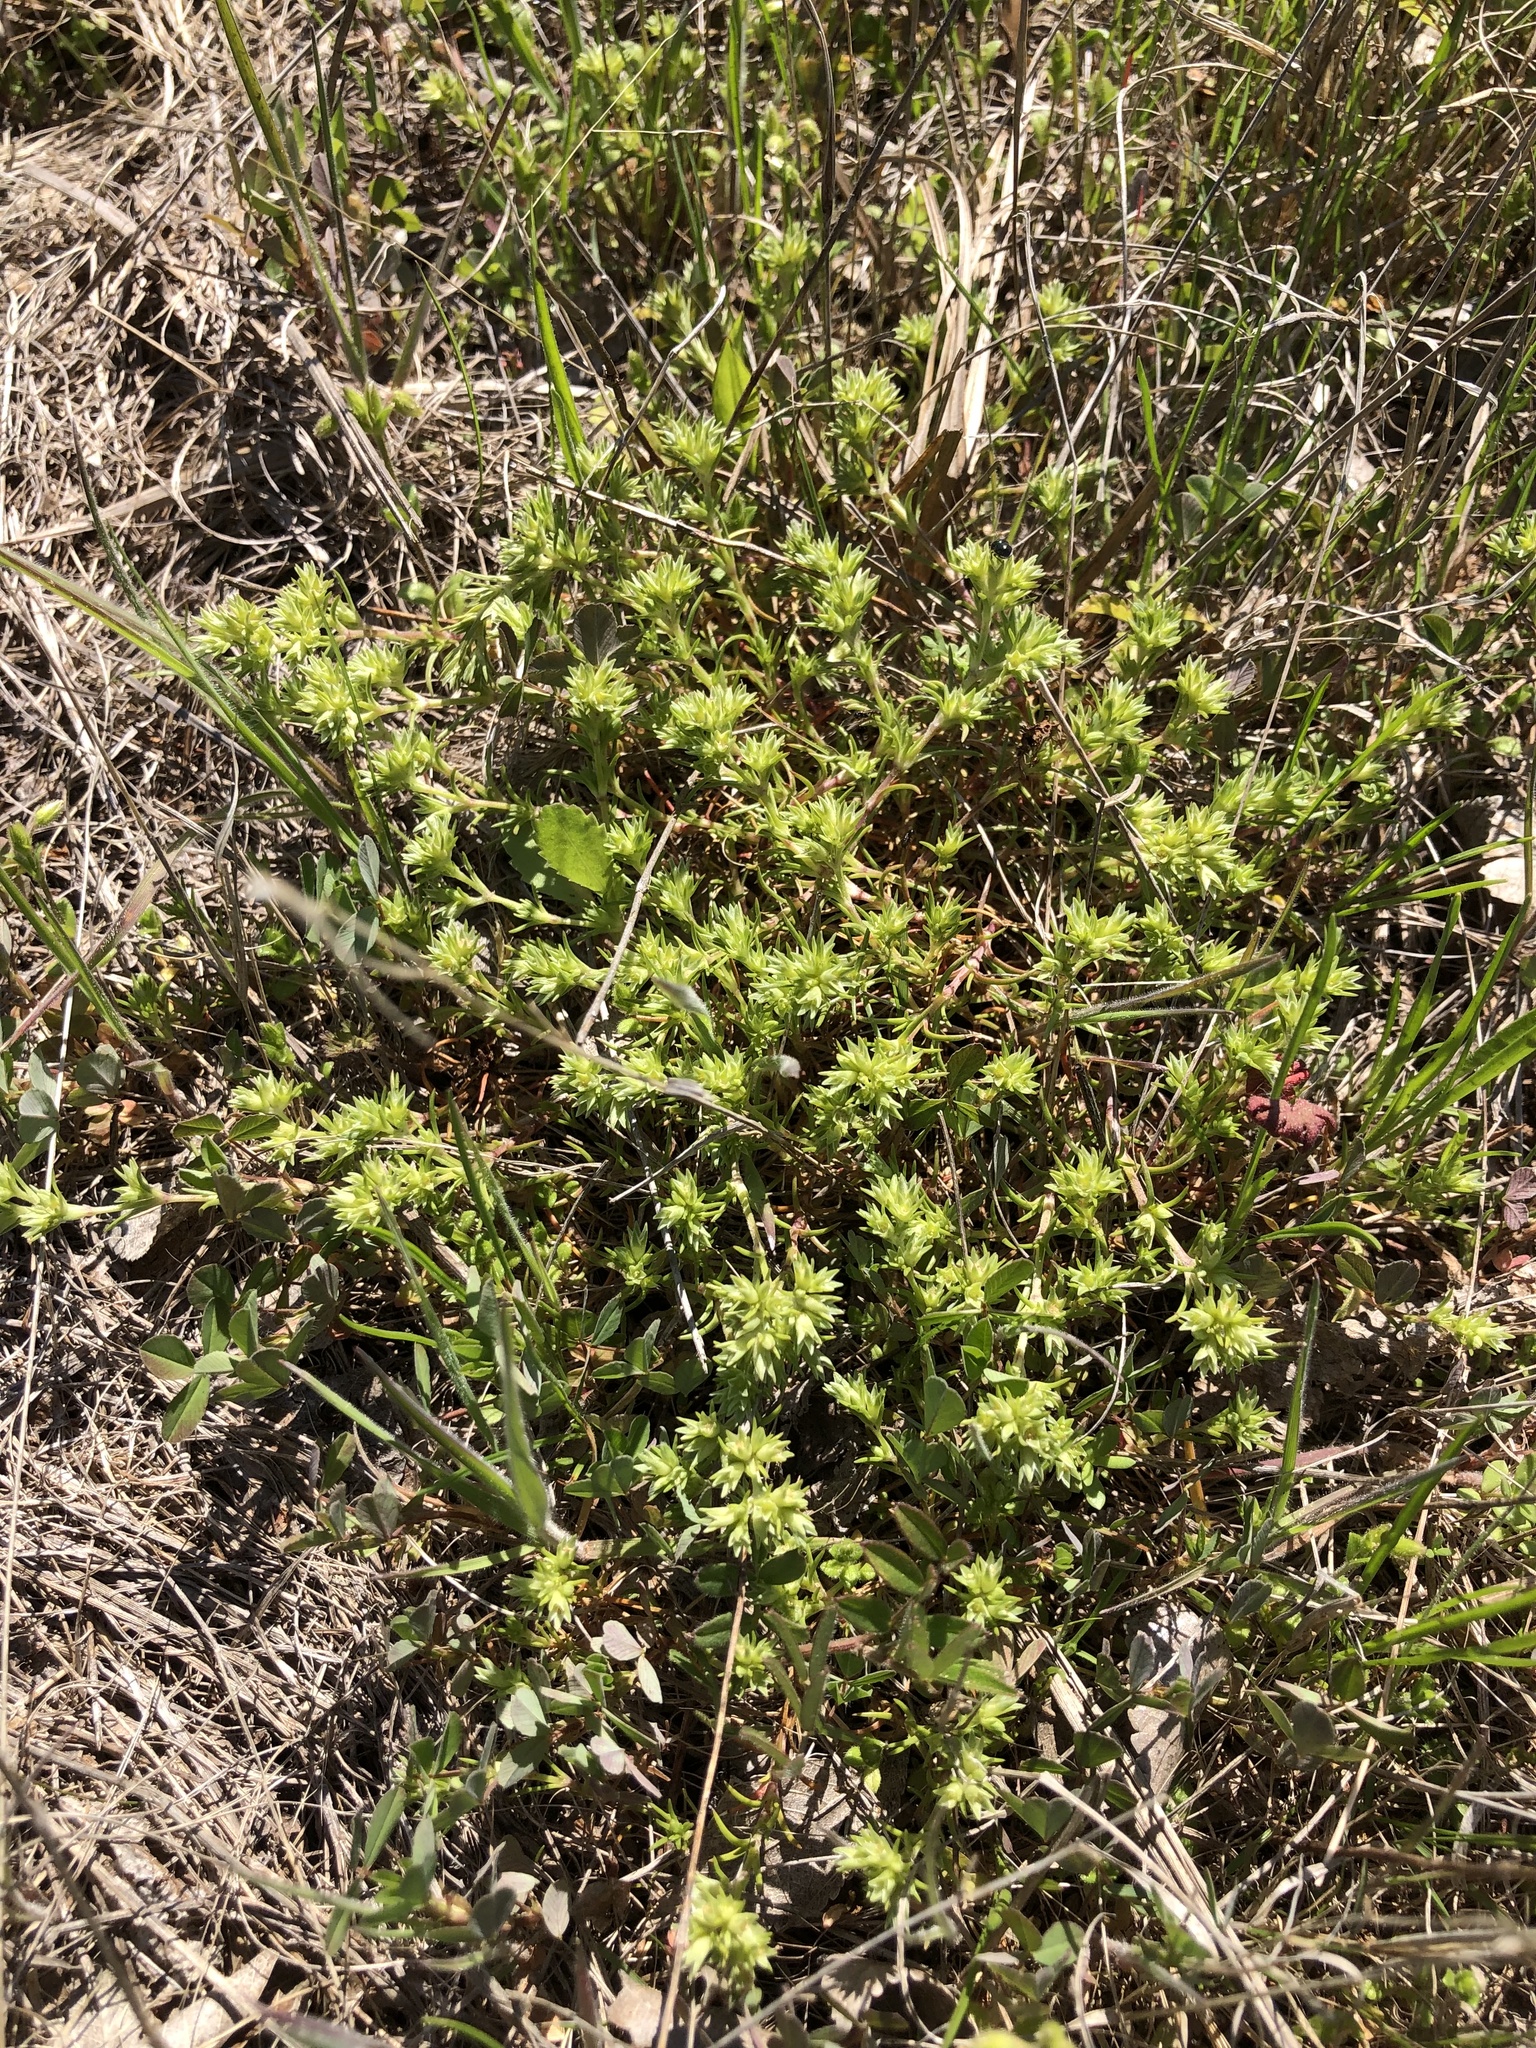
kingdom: Plantae
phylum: Tracheophyta
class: Magnoliopsida
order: Caryophyllales
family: Caryophyllaceae
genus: Scleranthus
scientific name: Scleranthus annuus
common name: Annual knawel
